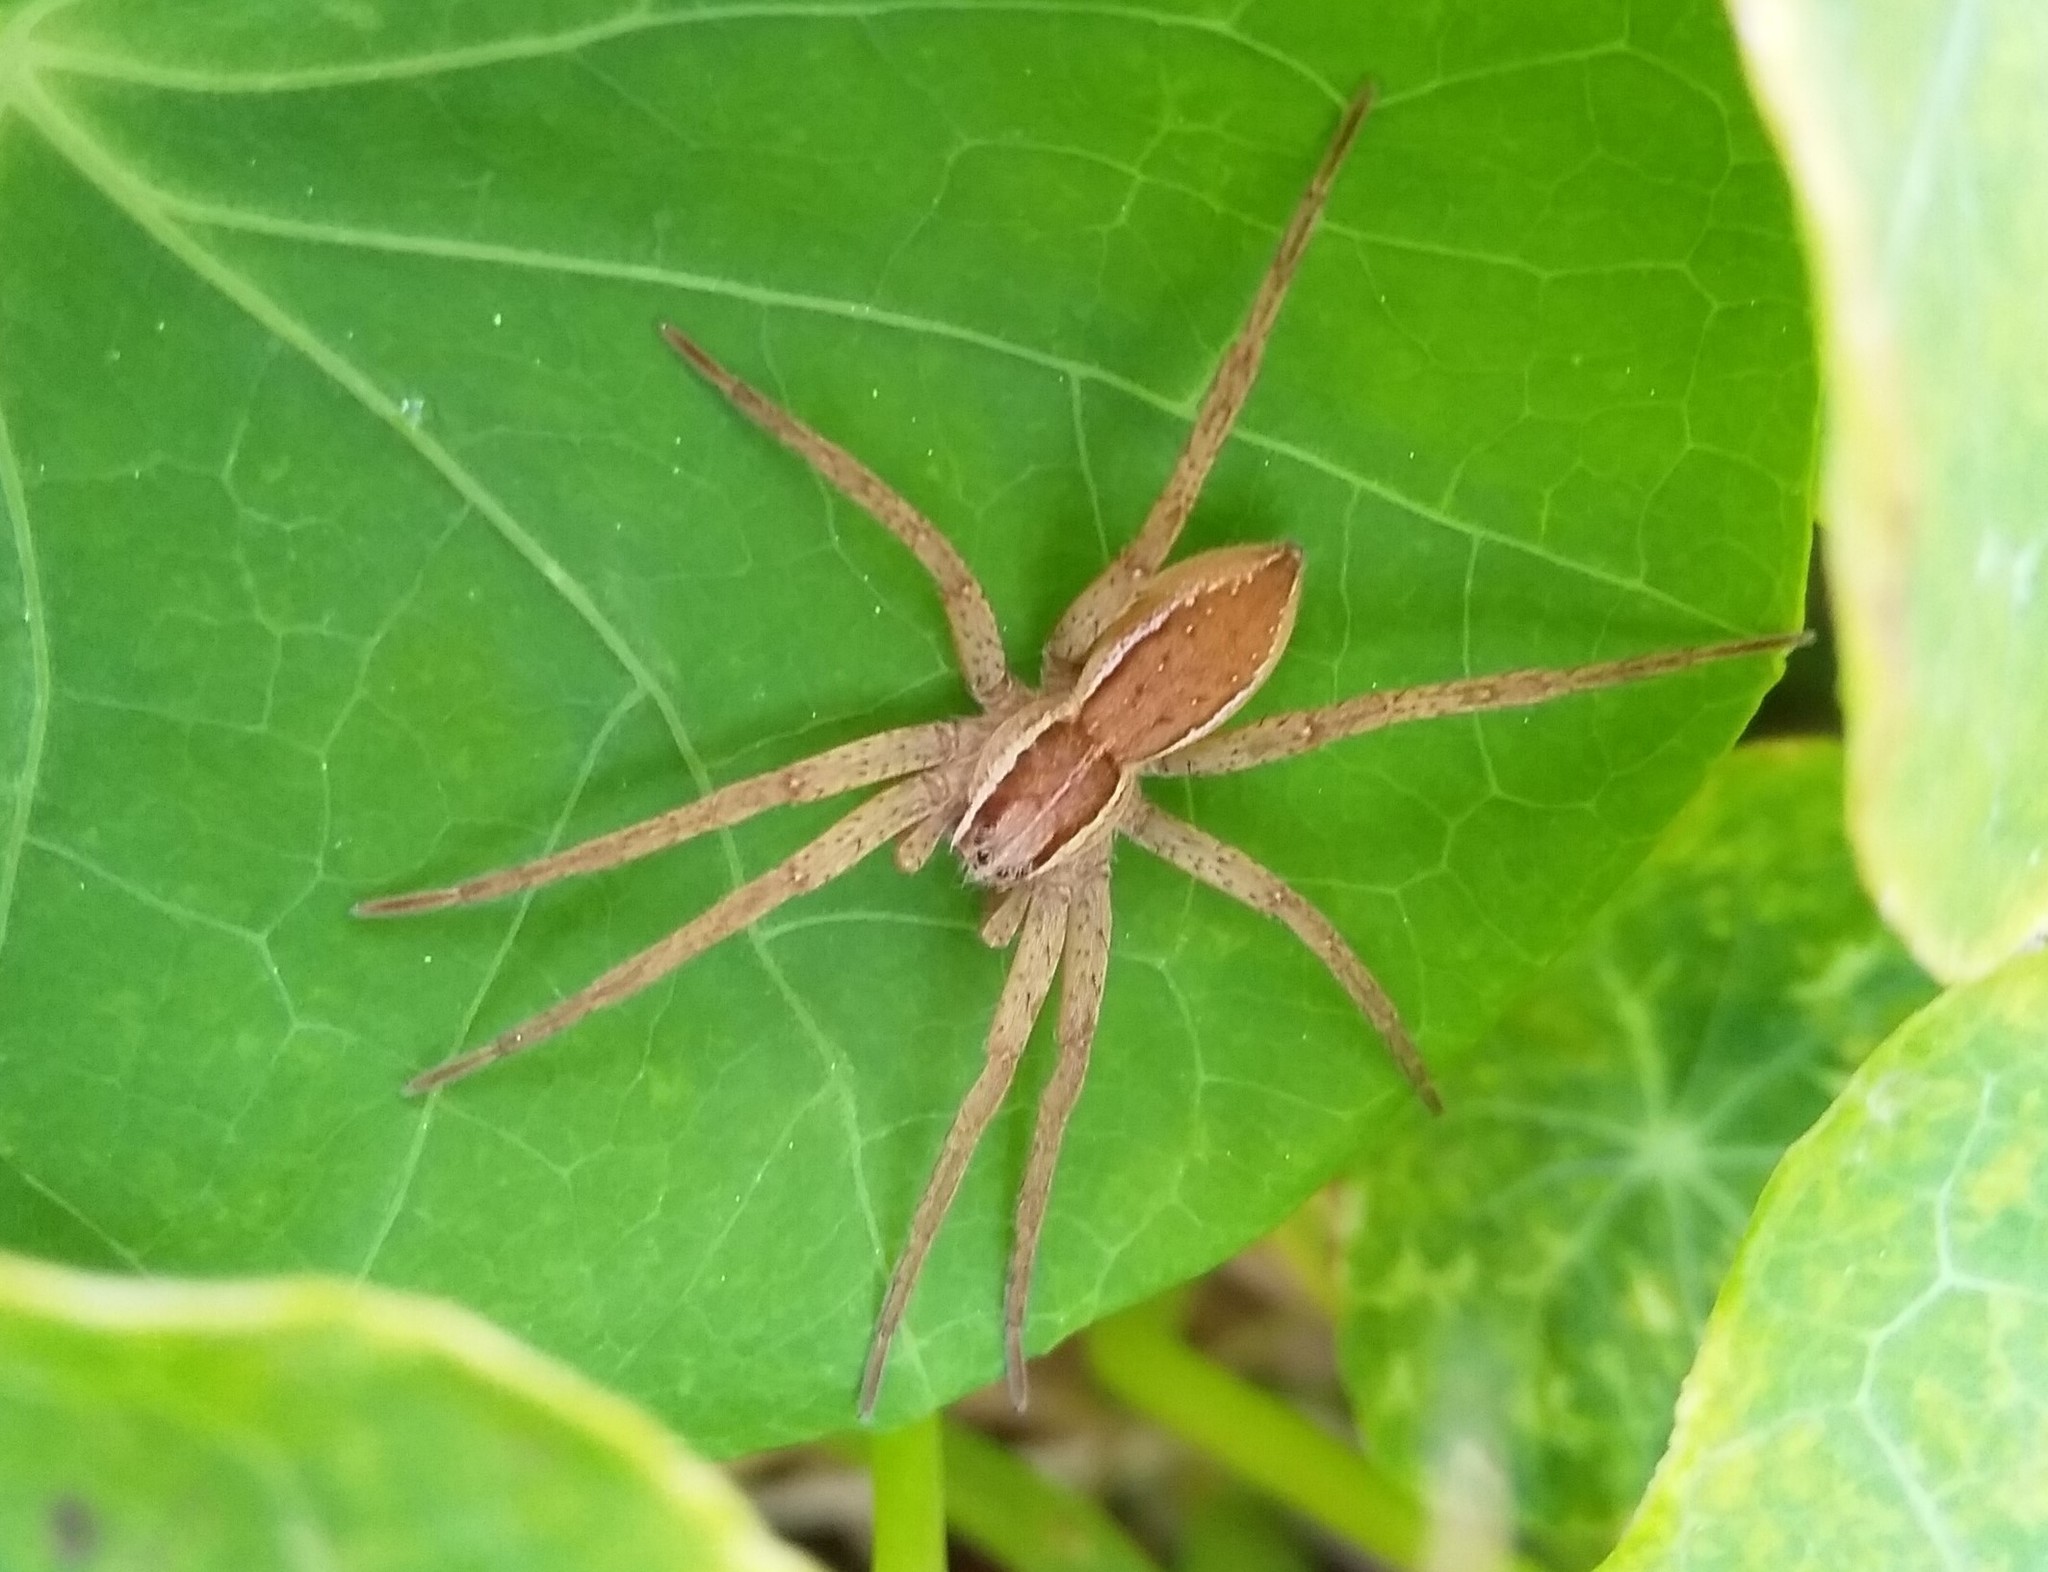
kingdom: Animalia
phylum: Arthropoda
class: Arachnida
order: Araneae
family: Pisauridae
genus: Dolomedes
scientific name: Dolomedes minor
